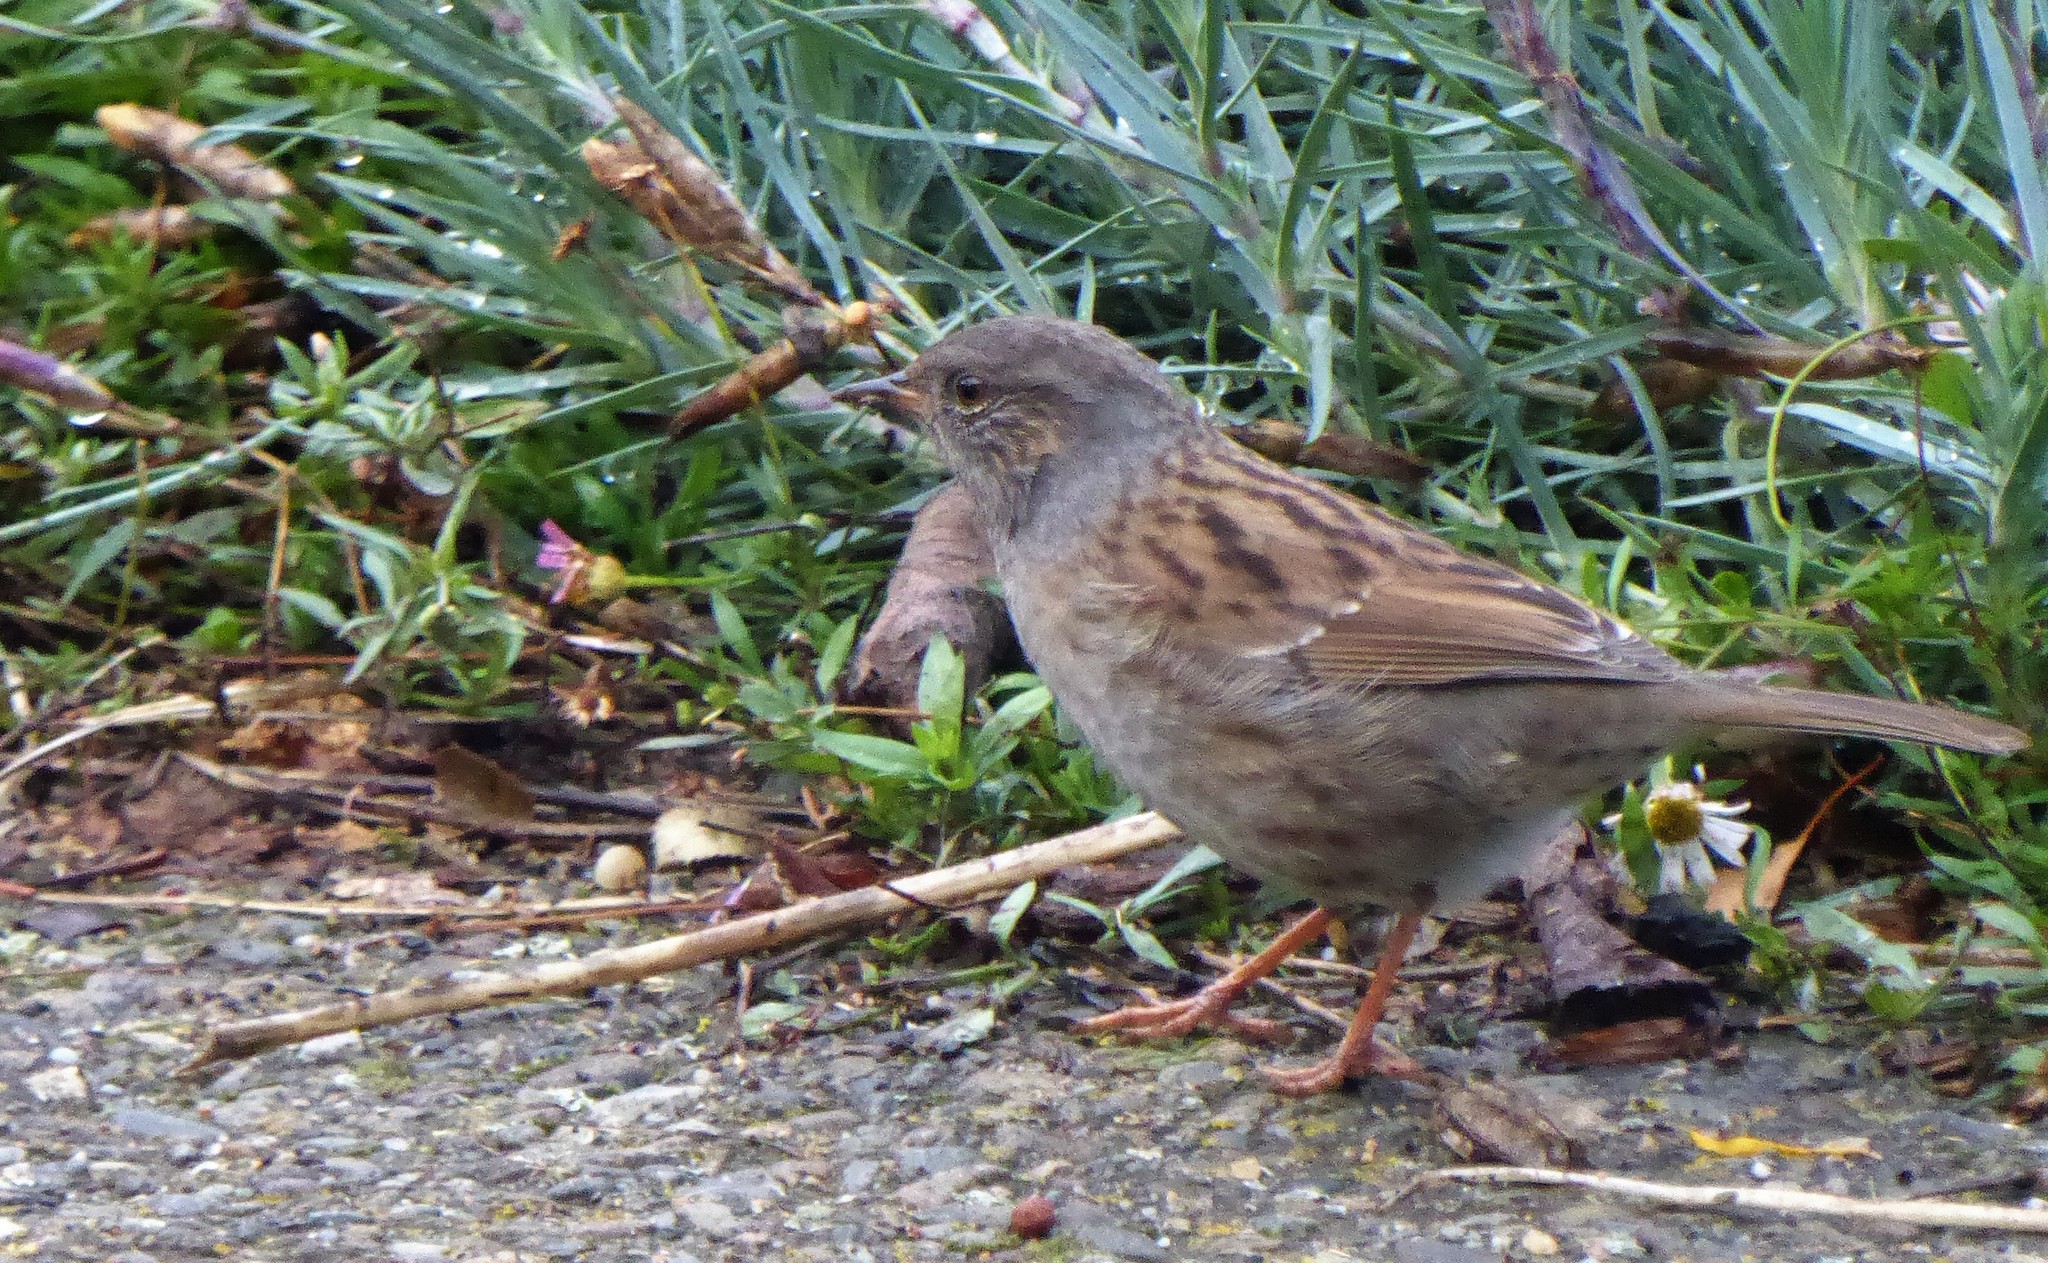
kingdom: Animalia
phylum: Chordata
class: Aves
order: Passeriformes
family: Prunellidae
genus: Prunella
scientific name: Prunella modularis
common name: Dunnock
